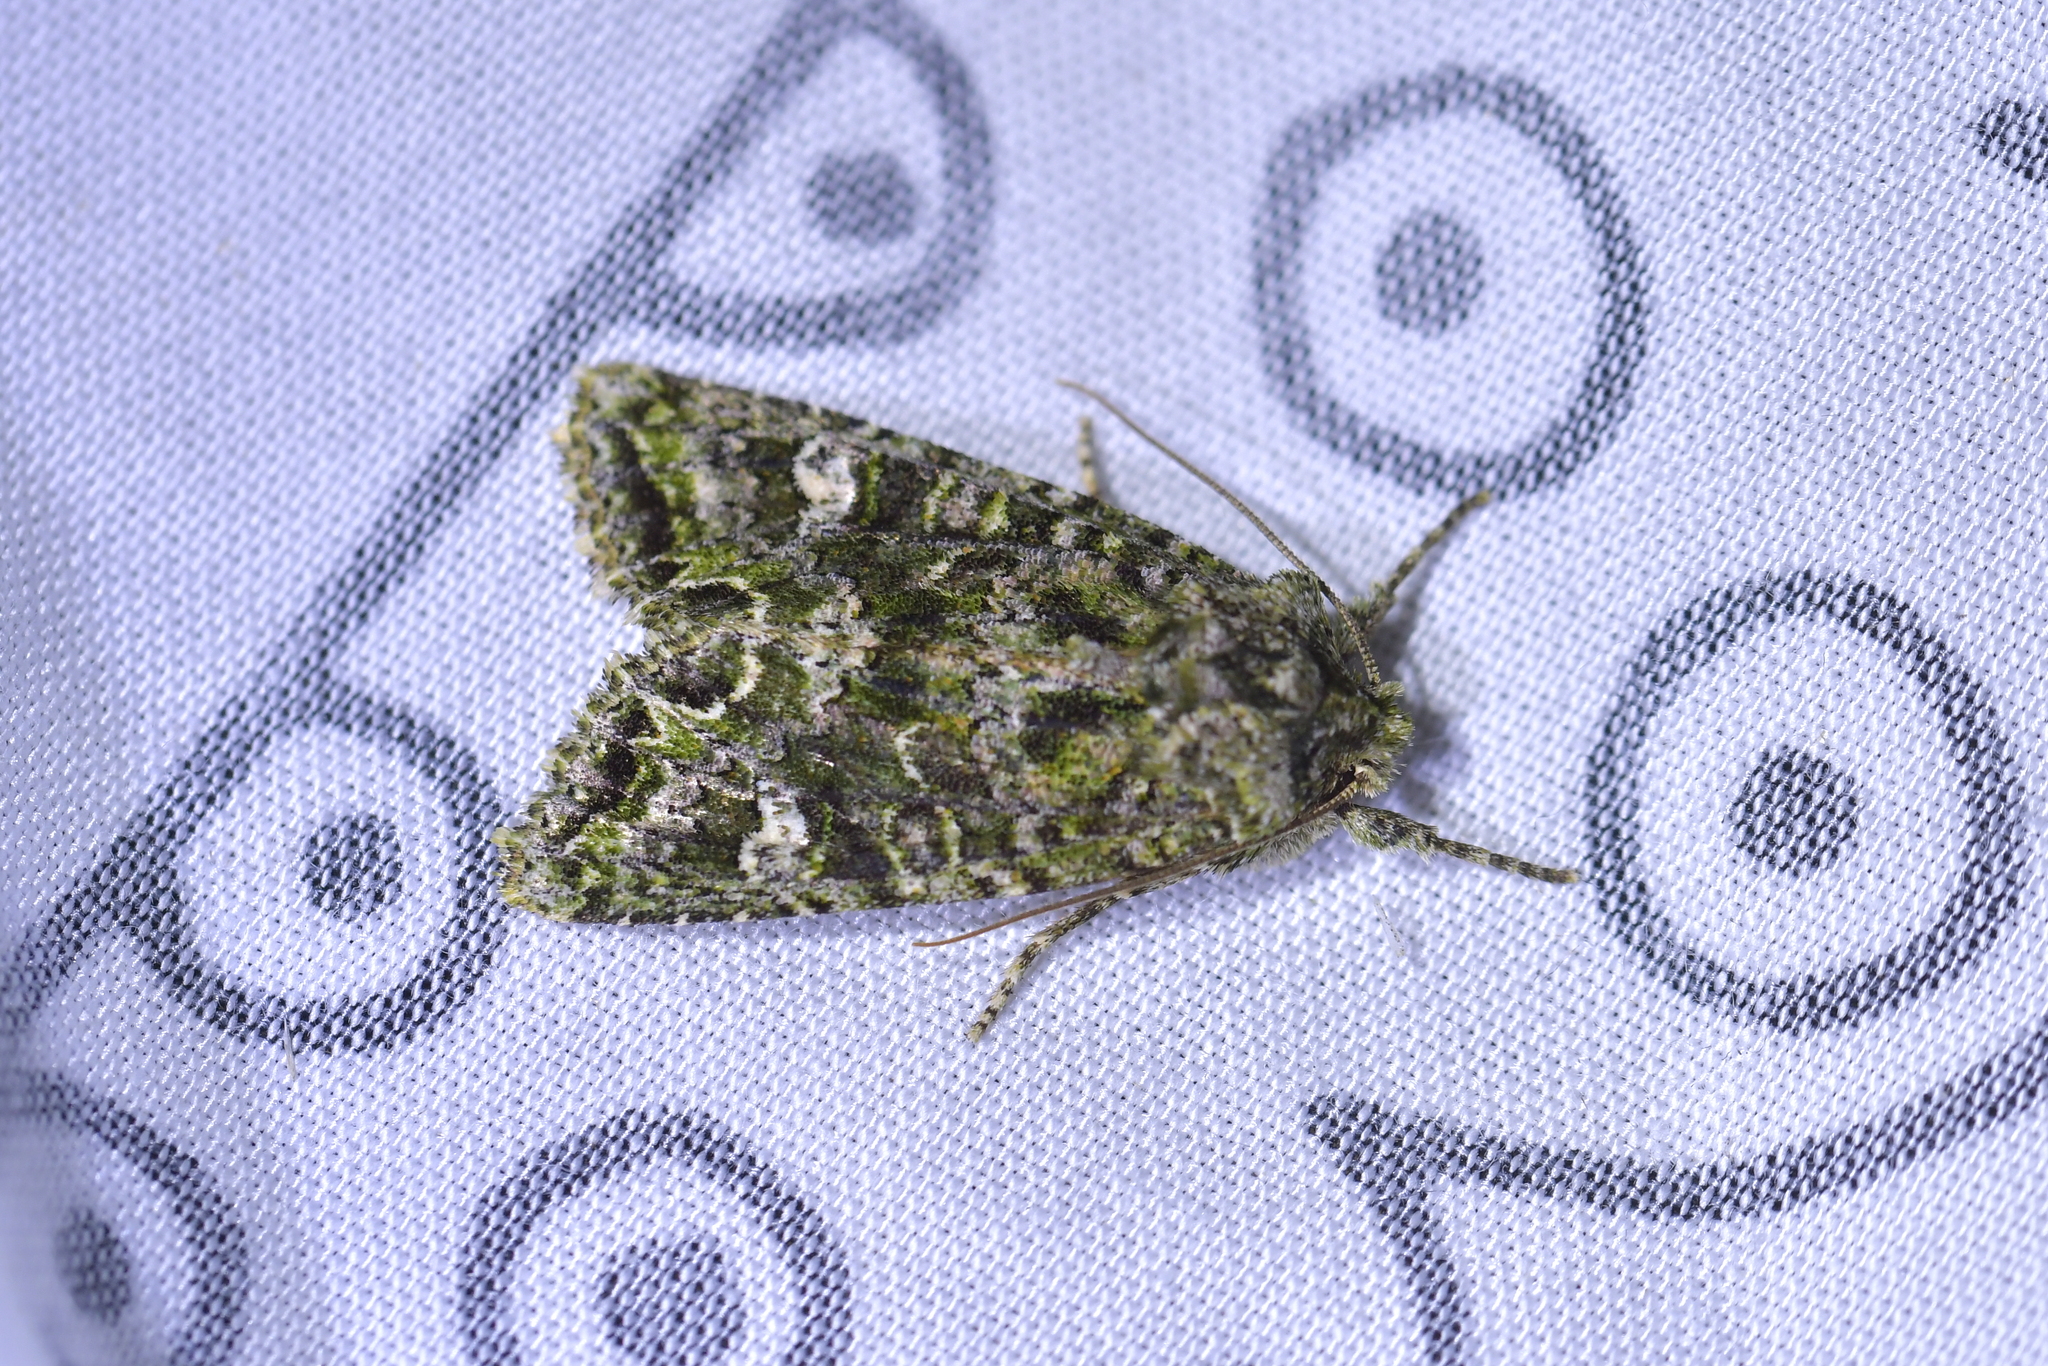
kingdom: Animalia
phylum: Arthropoda
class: Insecta
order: Lepidoptera
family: Noctuidae
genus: Ichneutica
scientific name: Ichneutica
